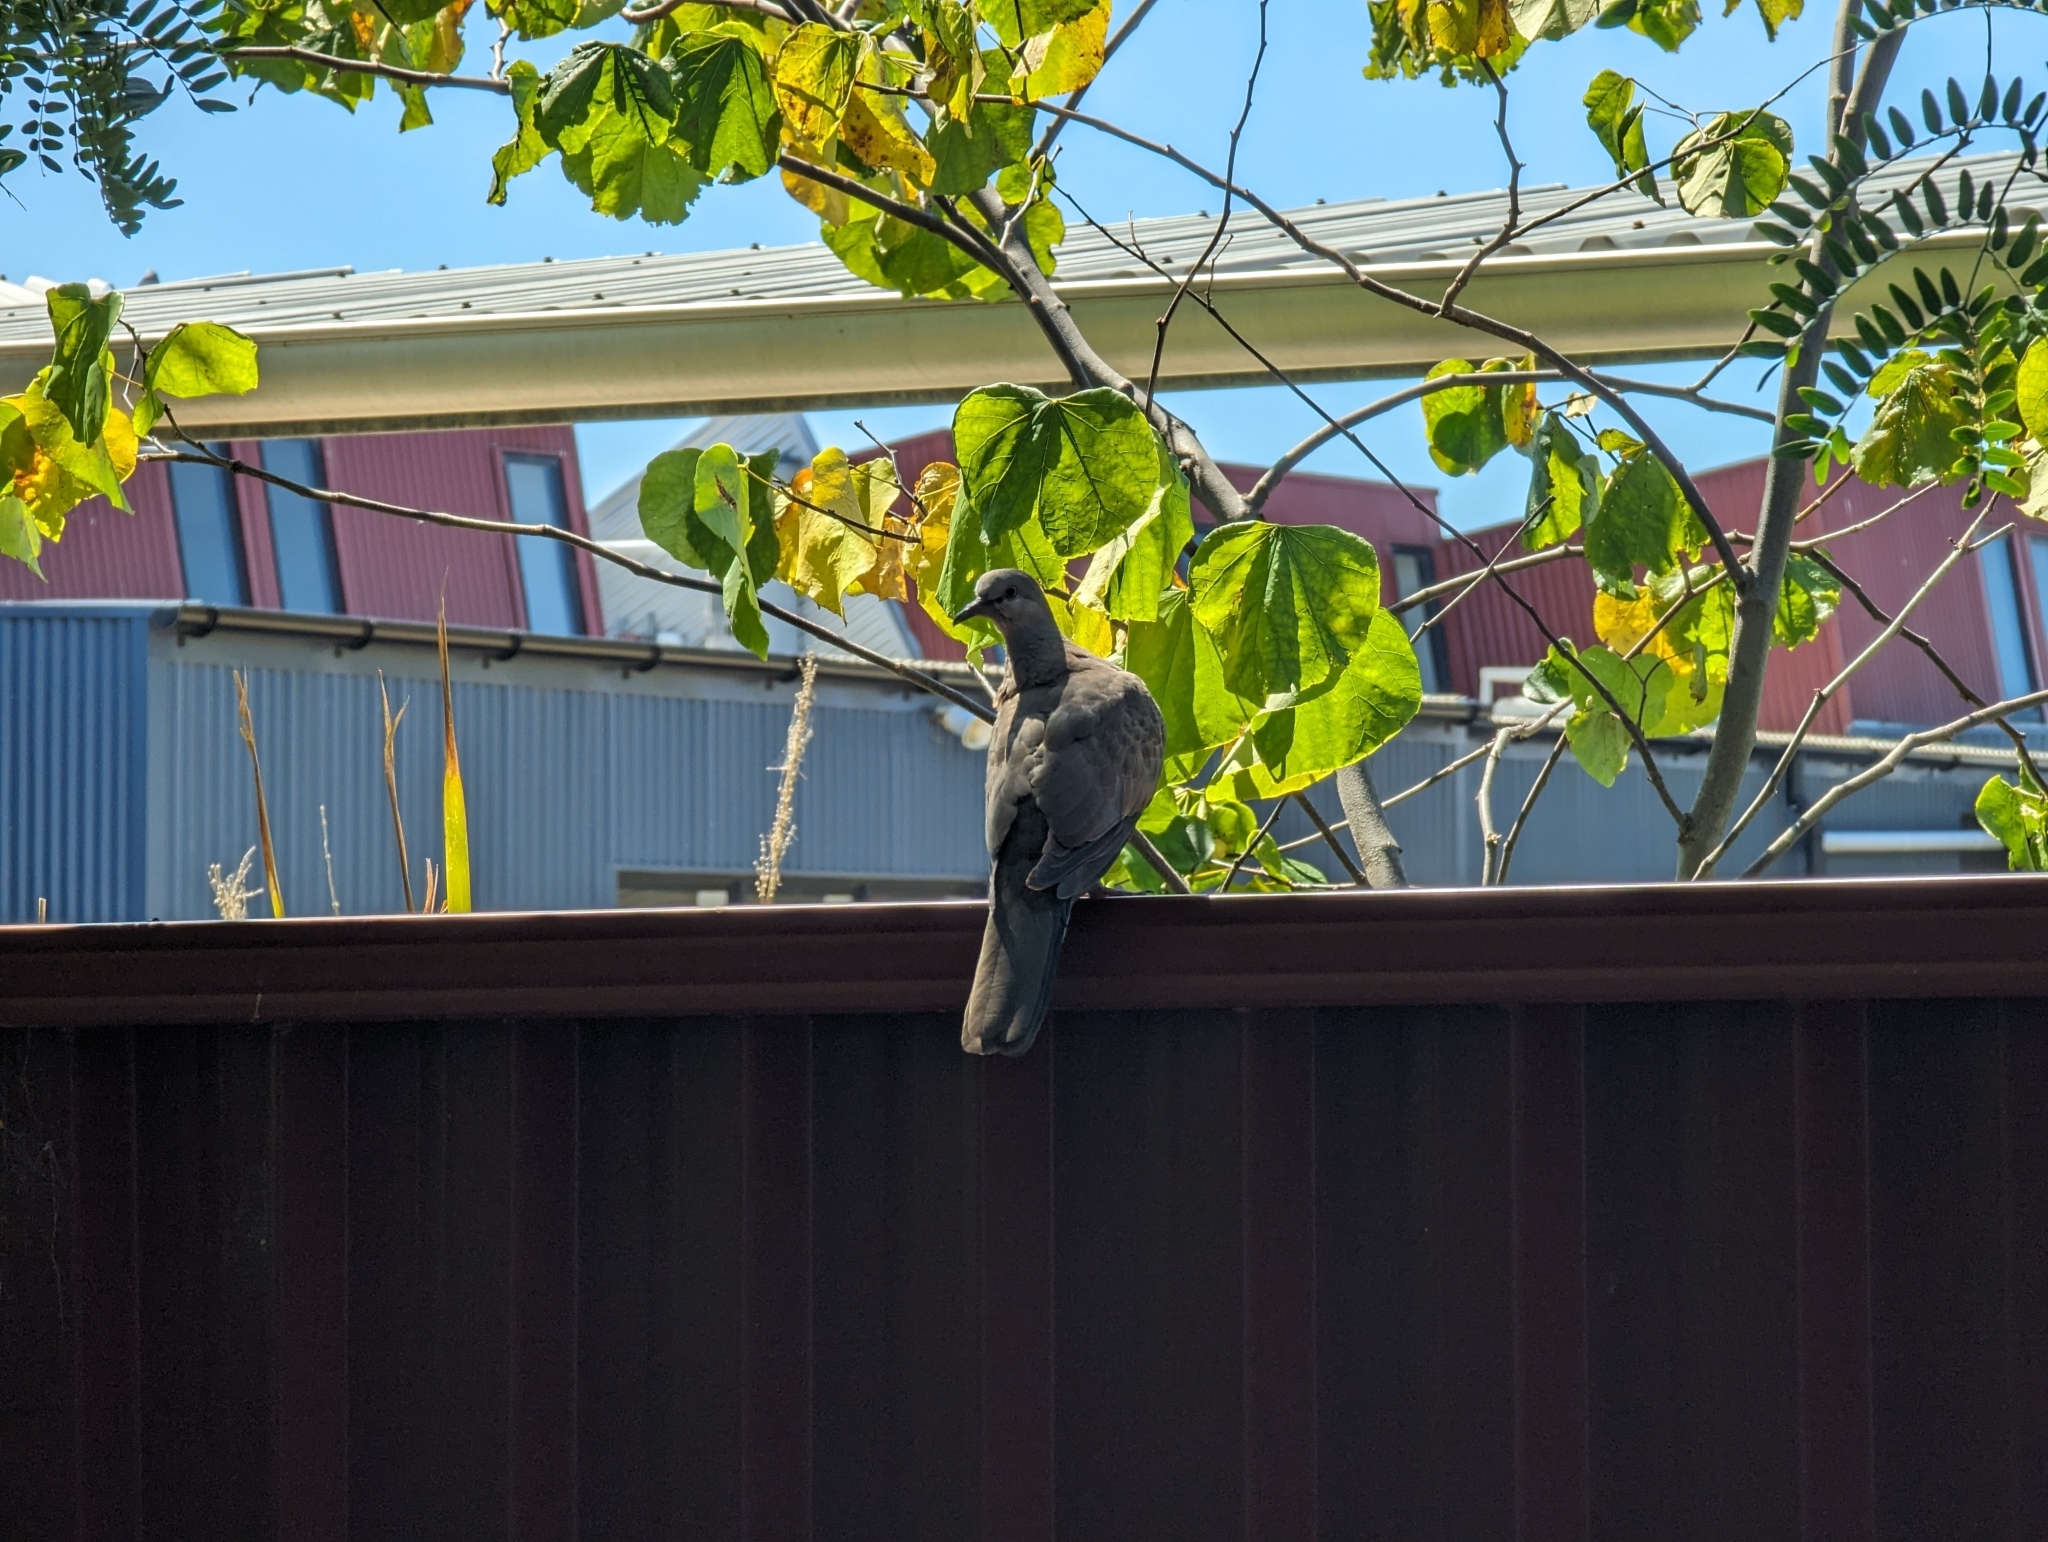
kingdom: Animalia
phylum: Chordata
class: Aves
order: Columbiformes
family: Columbidae
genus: Spilopelia
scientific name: Spilopelia chinensis
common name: Spotted dove
